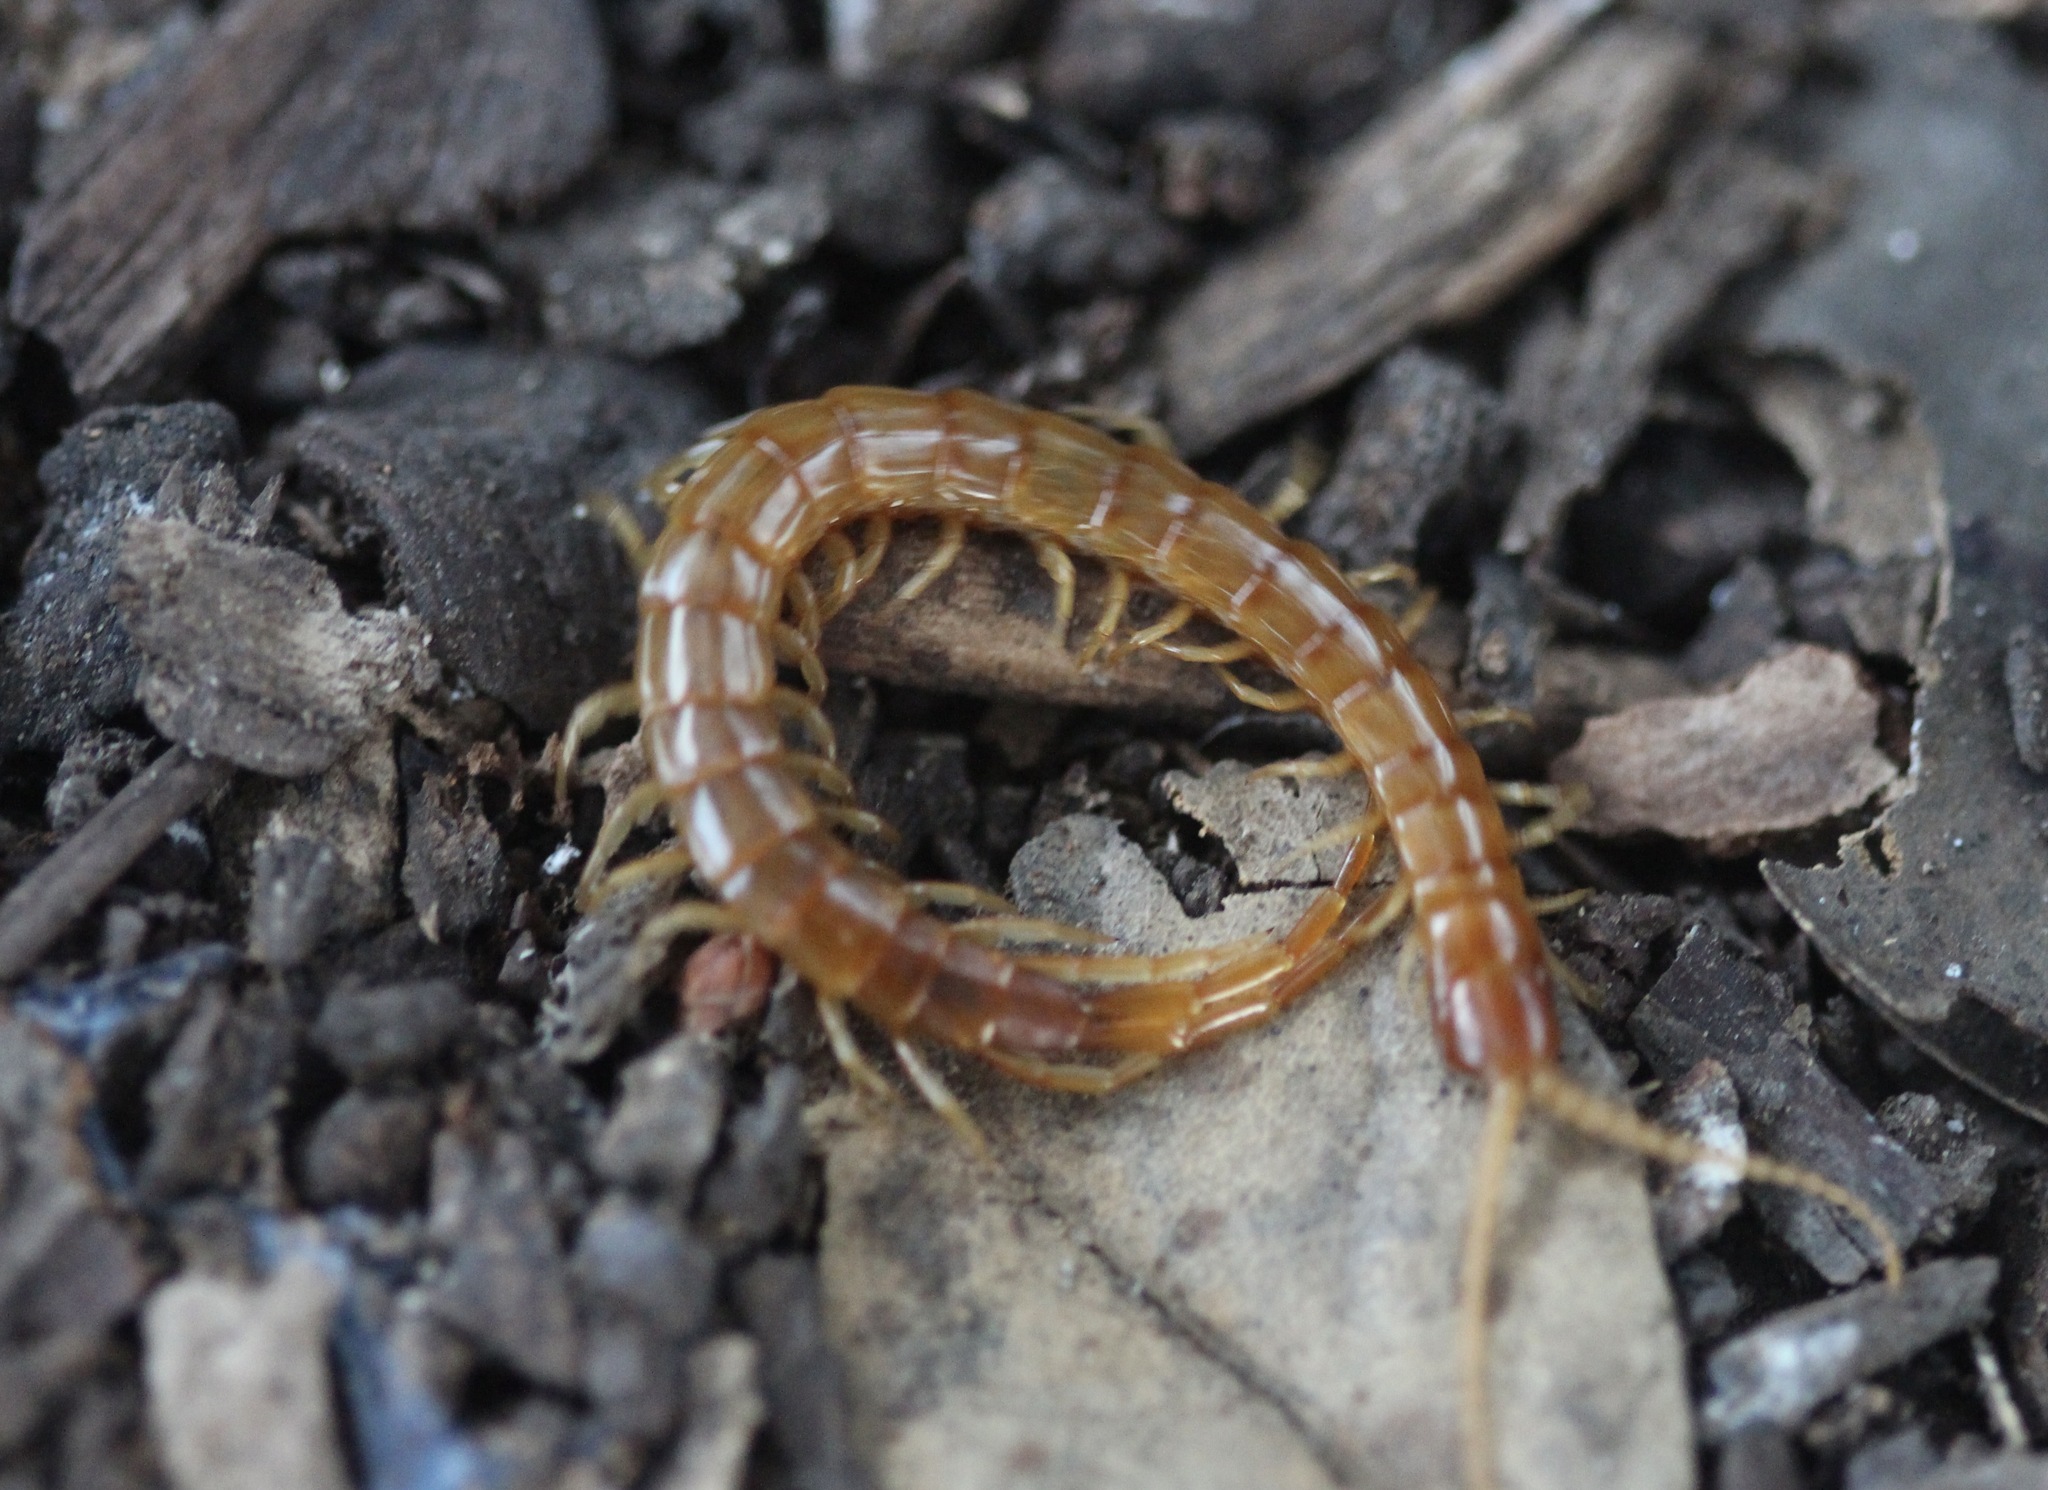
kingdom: Animalia
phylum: Arthropoda
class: Chilopoda
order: Scolopendromorpha
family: Scolopocryptopidae
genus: Scolopocryptops
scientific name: Scolopocryptops gracilis
